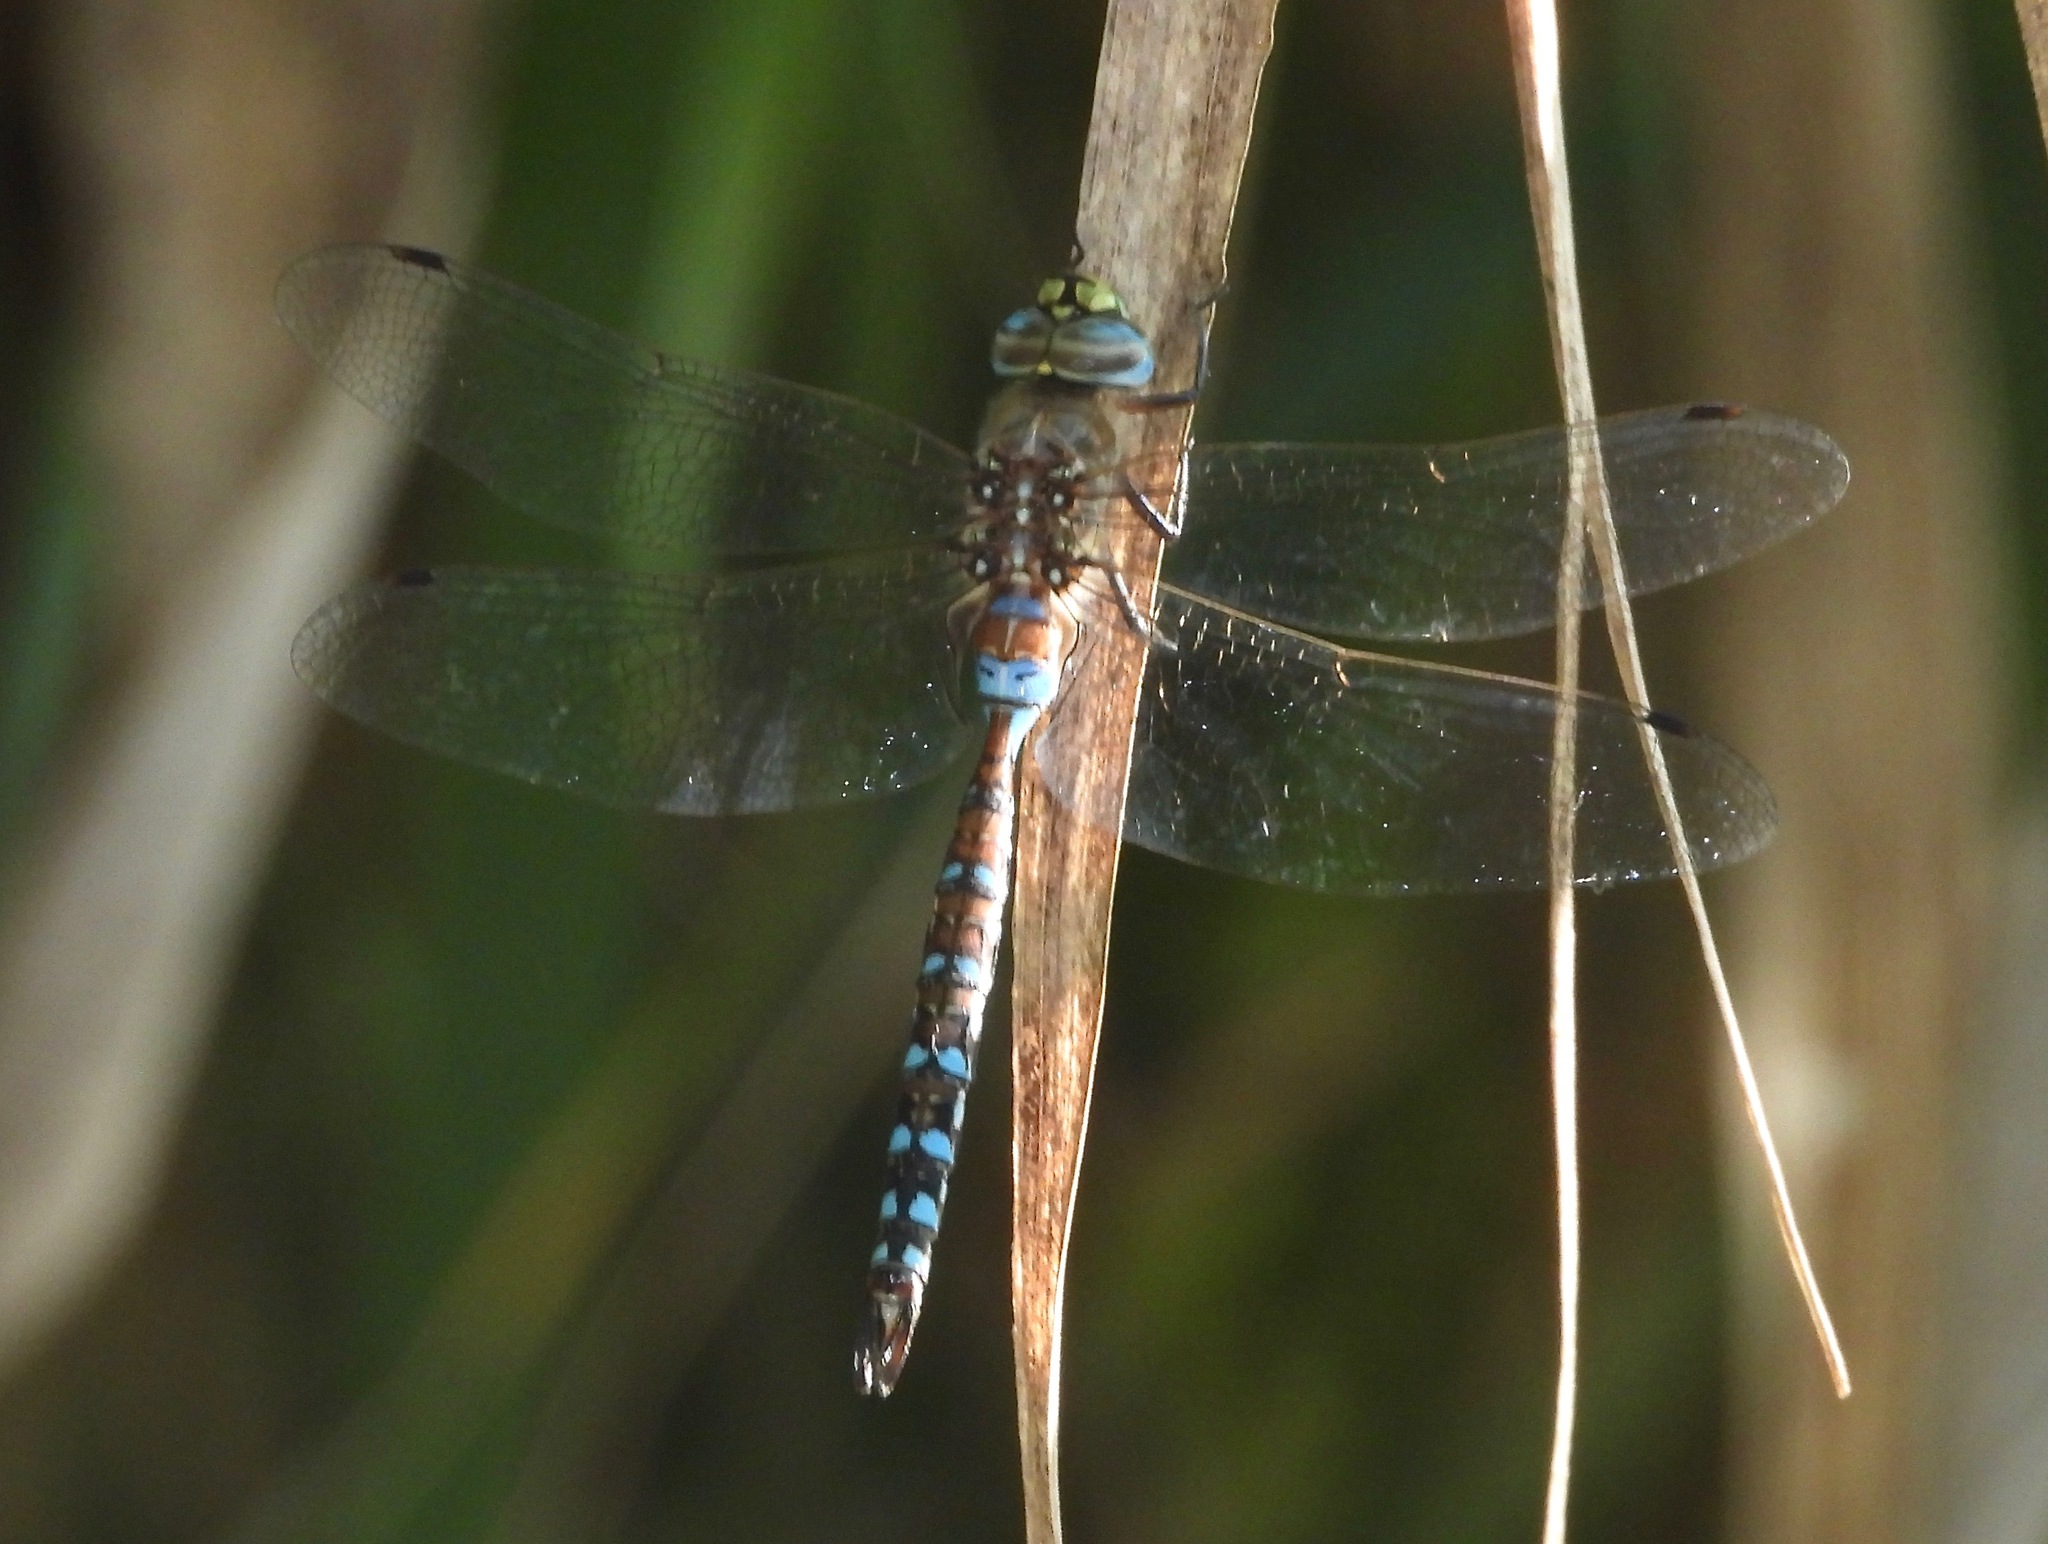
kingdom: Animalia
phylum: Arthropoda
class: Insecta
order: Odonata
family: Aeshnidae
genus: Rhionaeschna
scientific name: Rhionaeschna diffinis
